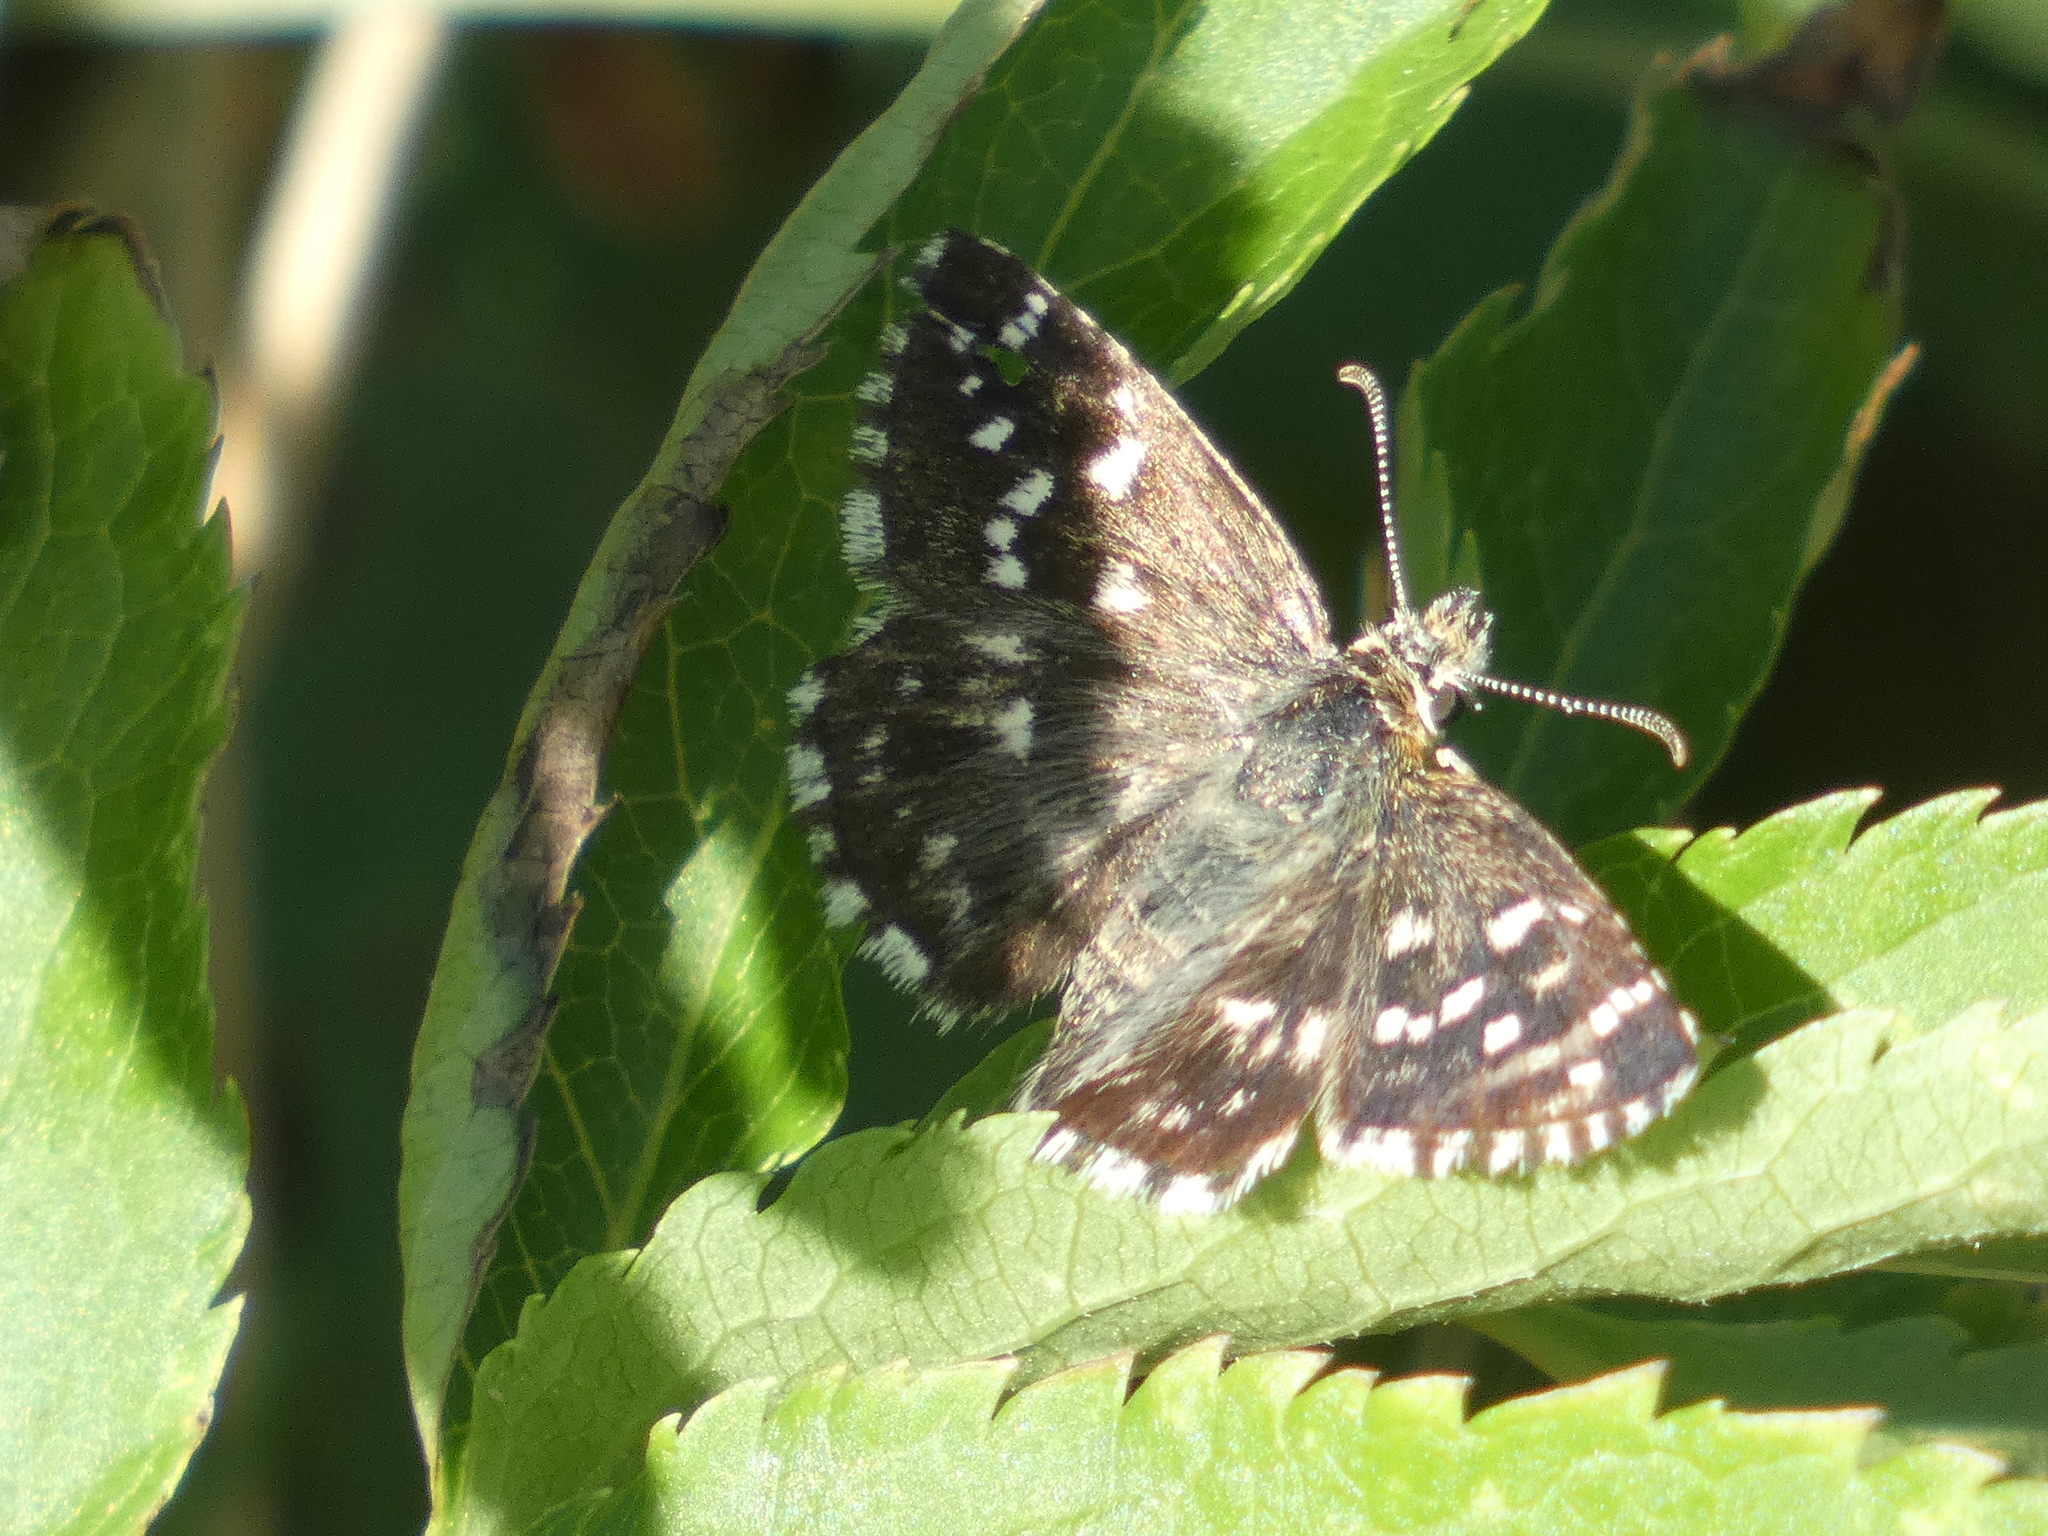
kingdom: Animalia
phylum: Arthropoda
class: Insecta
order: Lepidoptera
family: Hesperiidae
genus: Pyrgus
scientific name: Pyrgus malvoides
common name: Southern grizzled skipper
